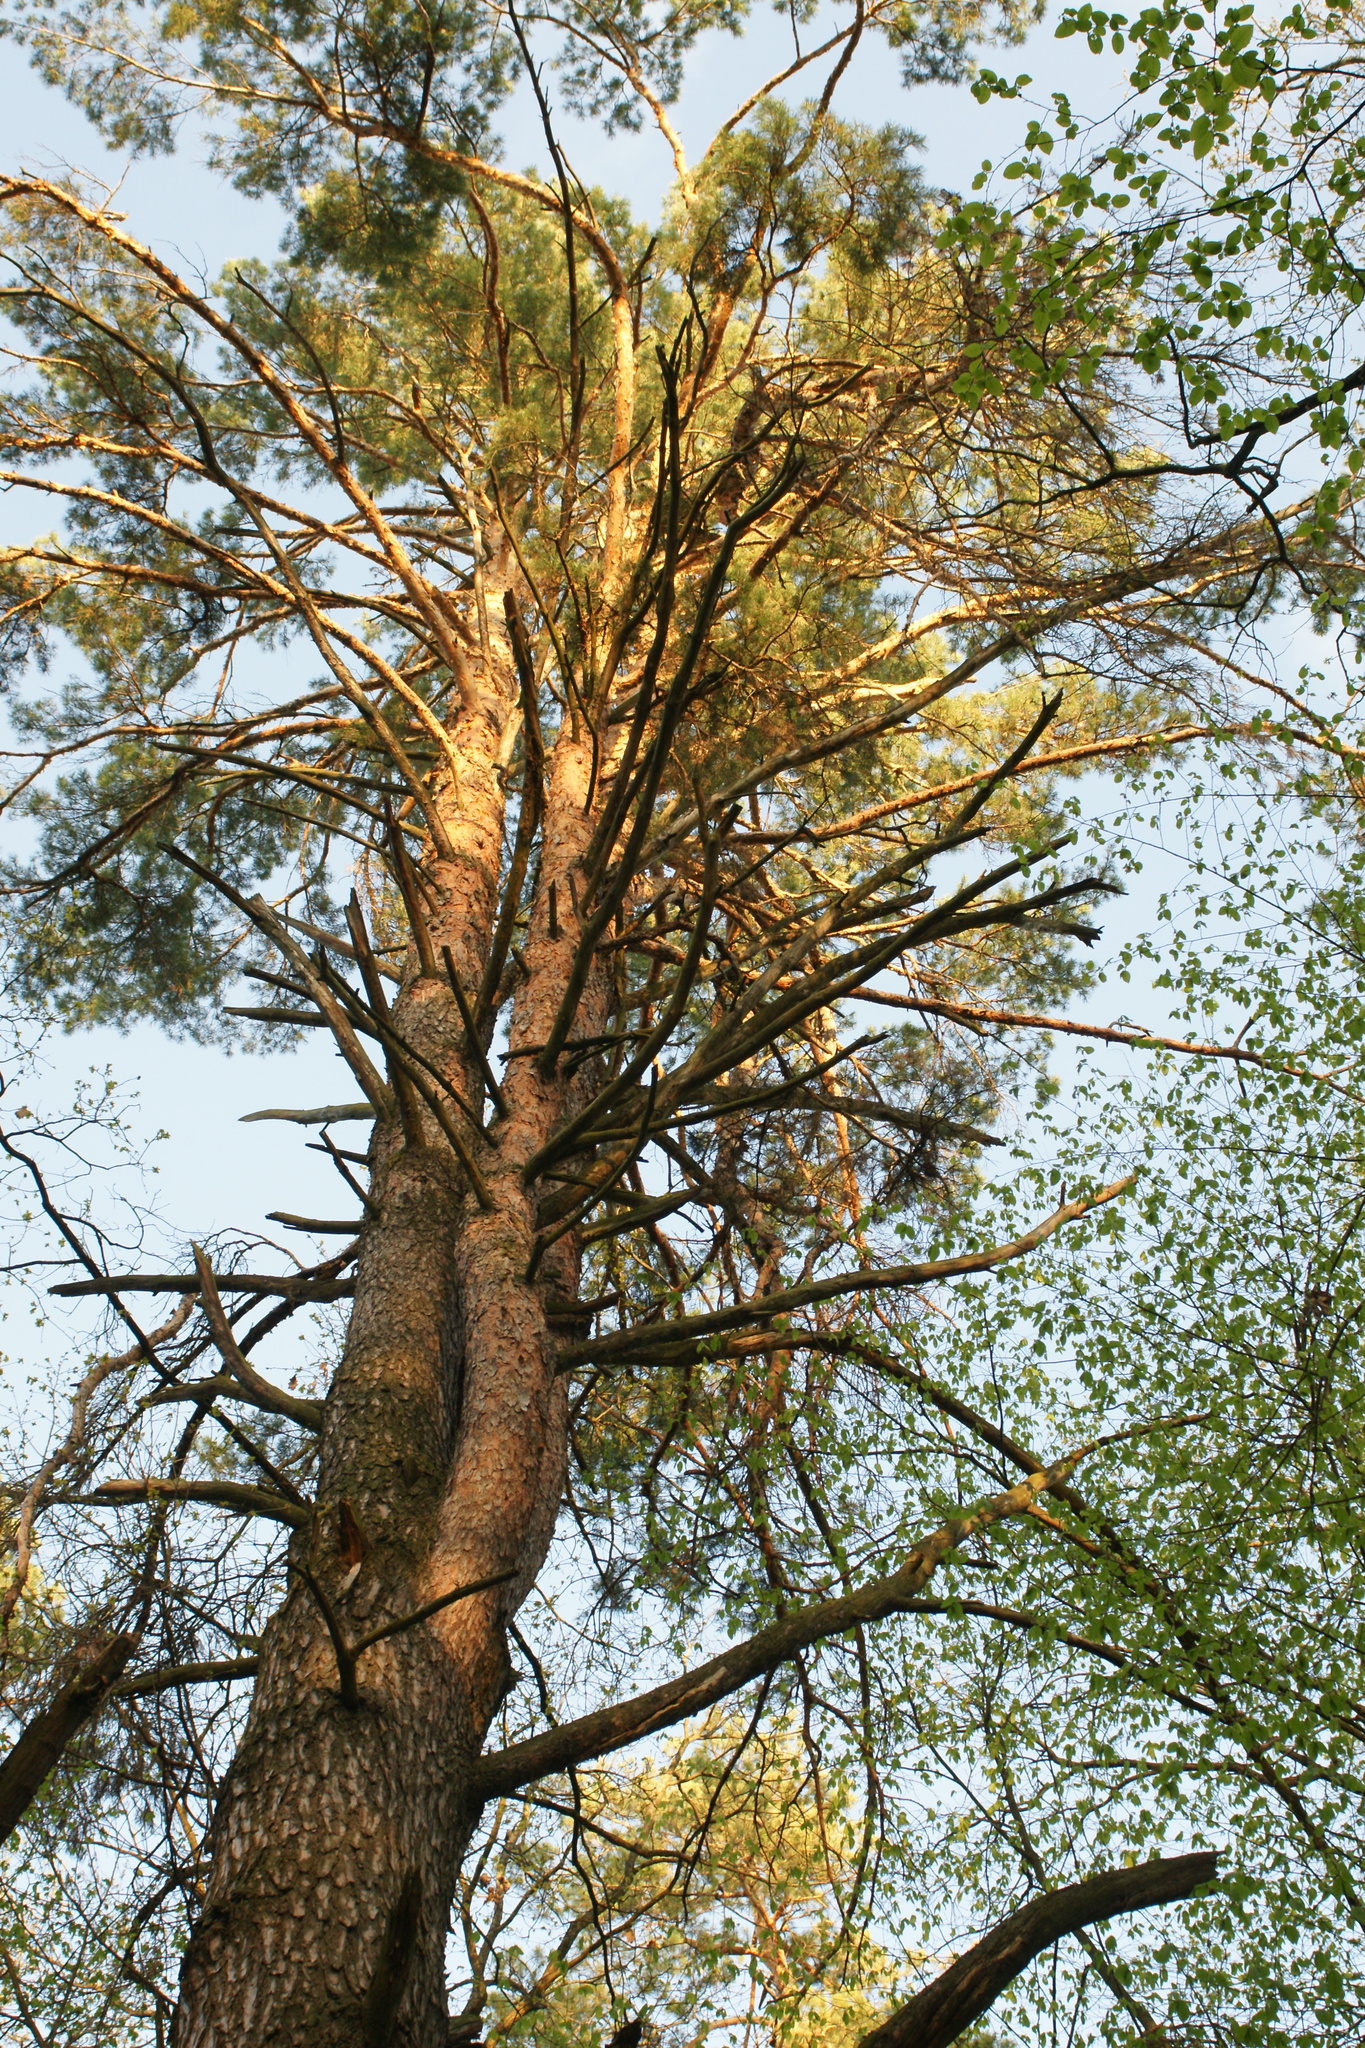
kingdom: Plantae
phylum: Tracheophyta
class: Pinopsida
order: Pinales
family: Pinaceae
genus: Pinus
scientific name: Pinus sylvestris
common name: Scots pine
